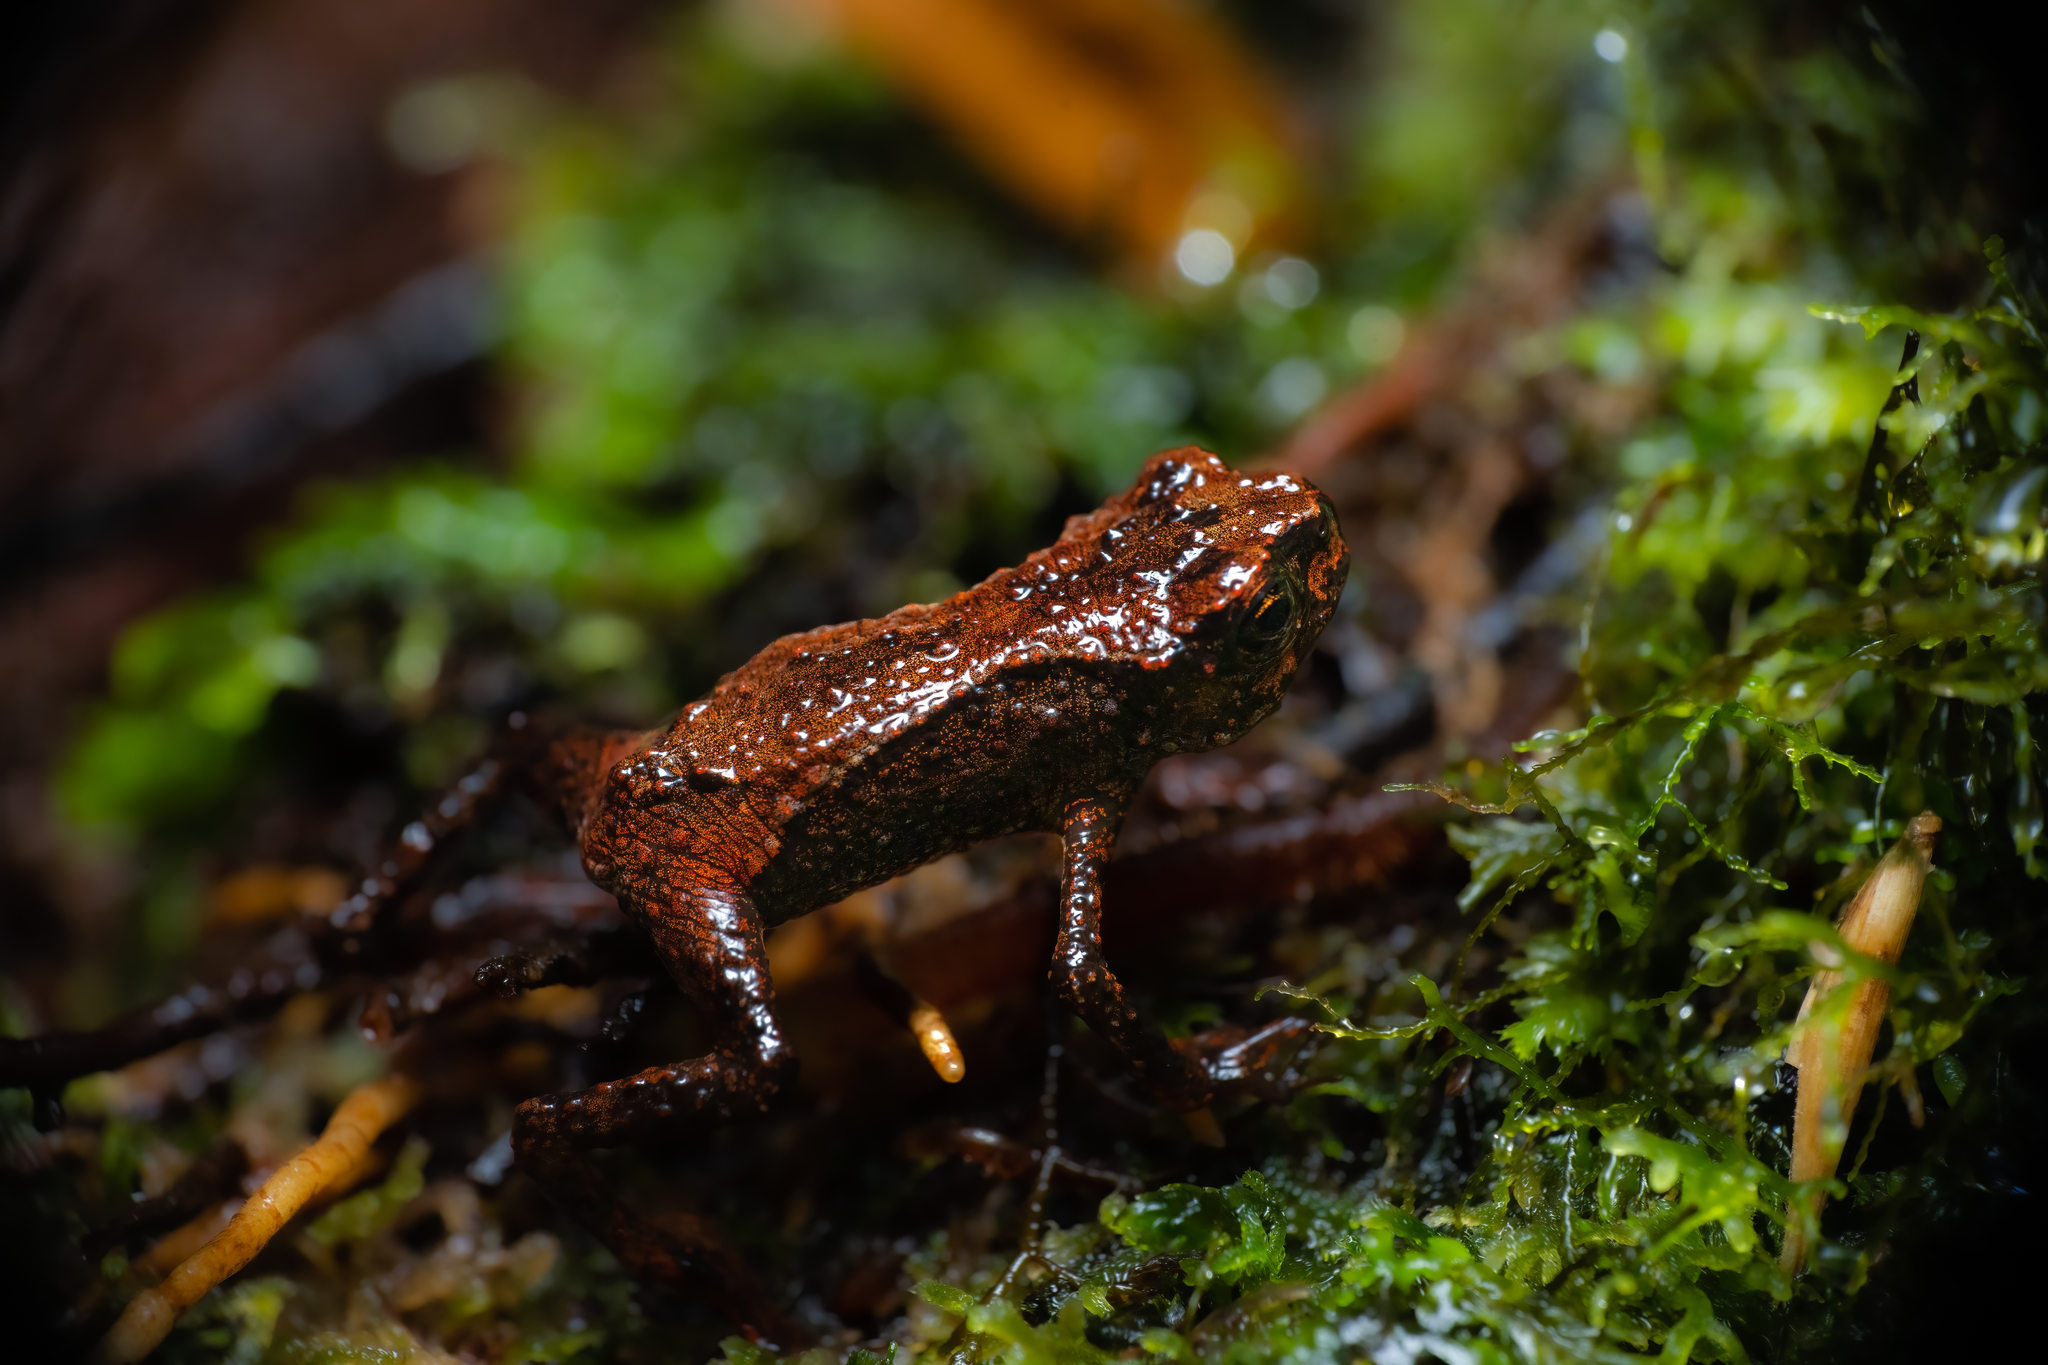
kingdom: Animalia
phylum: Chordata
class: Amphibia
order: Anura
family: Bufonidae
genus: Ansonia
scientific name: Ansonia fuliginea
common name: Montane slender toad
